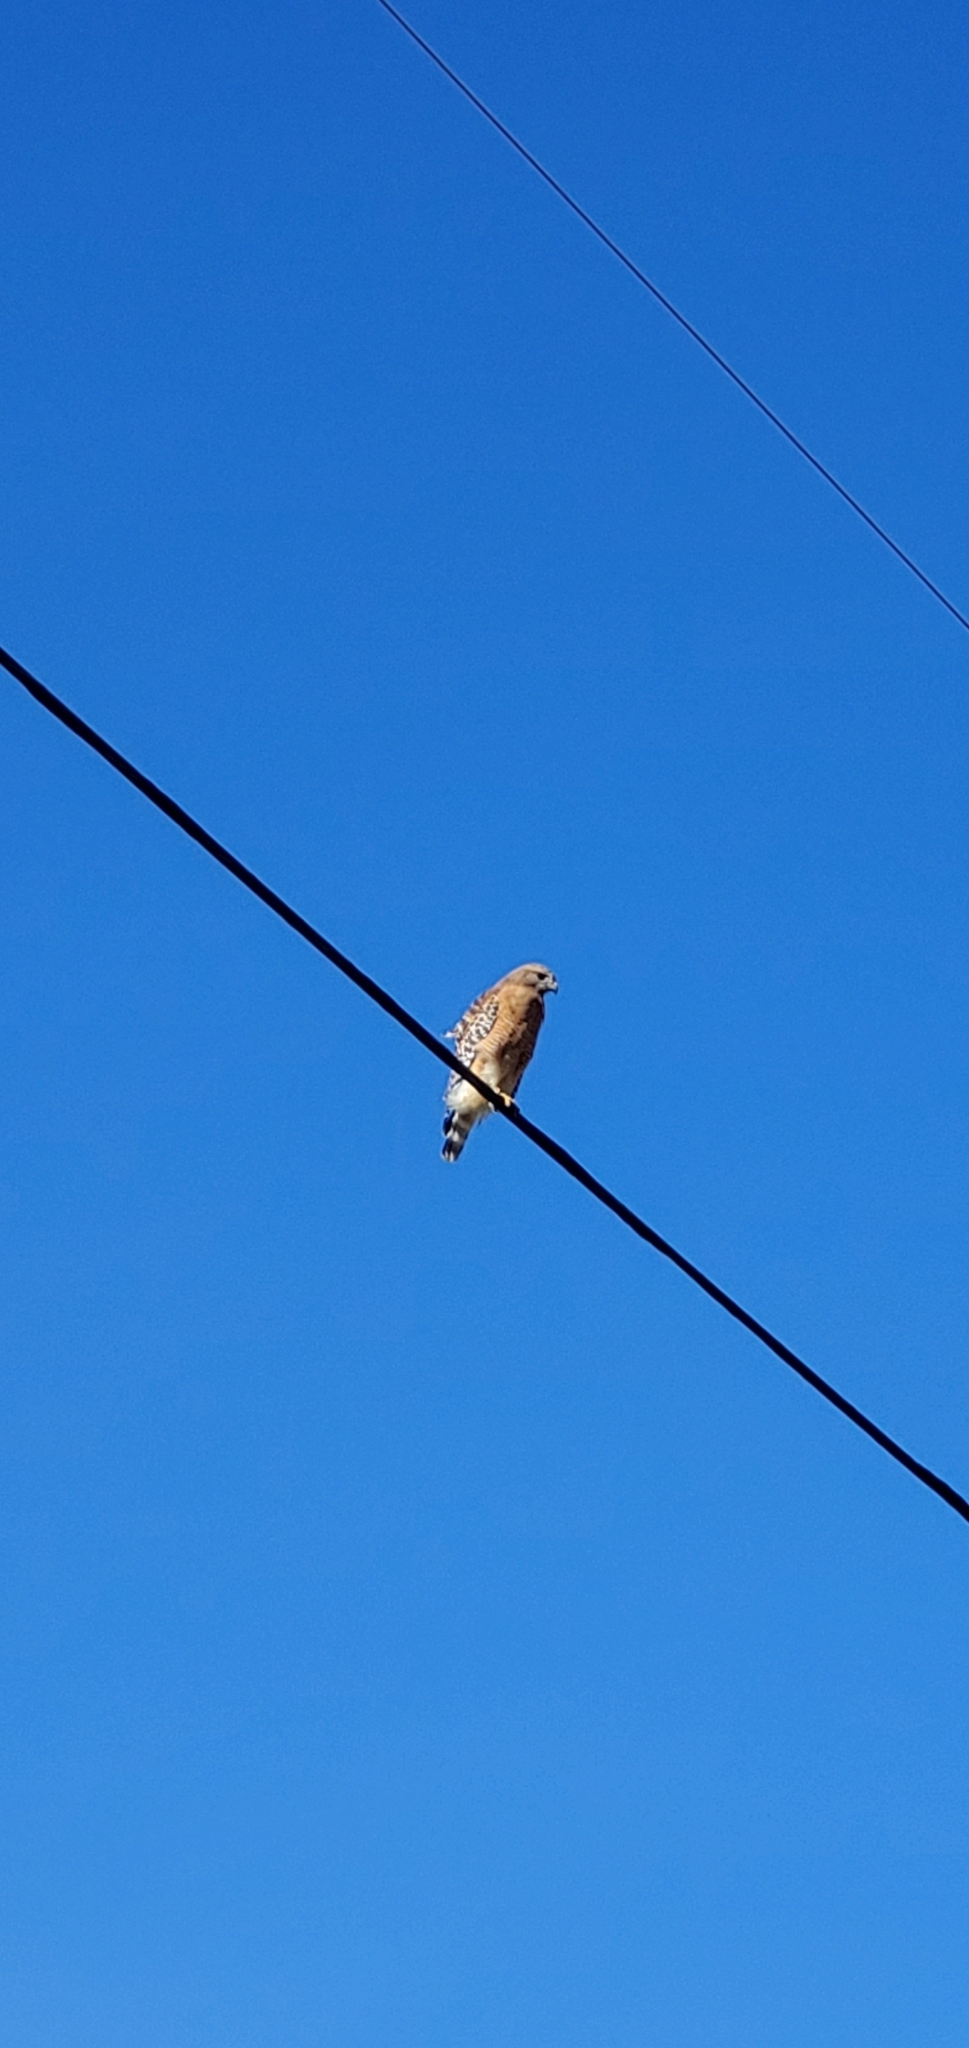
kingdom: Animalia
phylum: Chordata
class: Aves
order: Accipitriformes
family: Accipitridae
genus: Buteo
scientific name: Buteo lineatus
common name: Red-shouldered hawk
